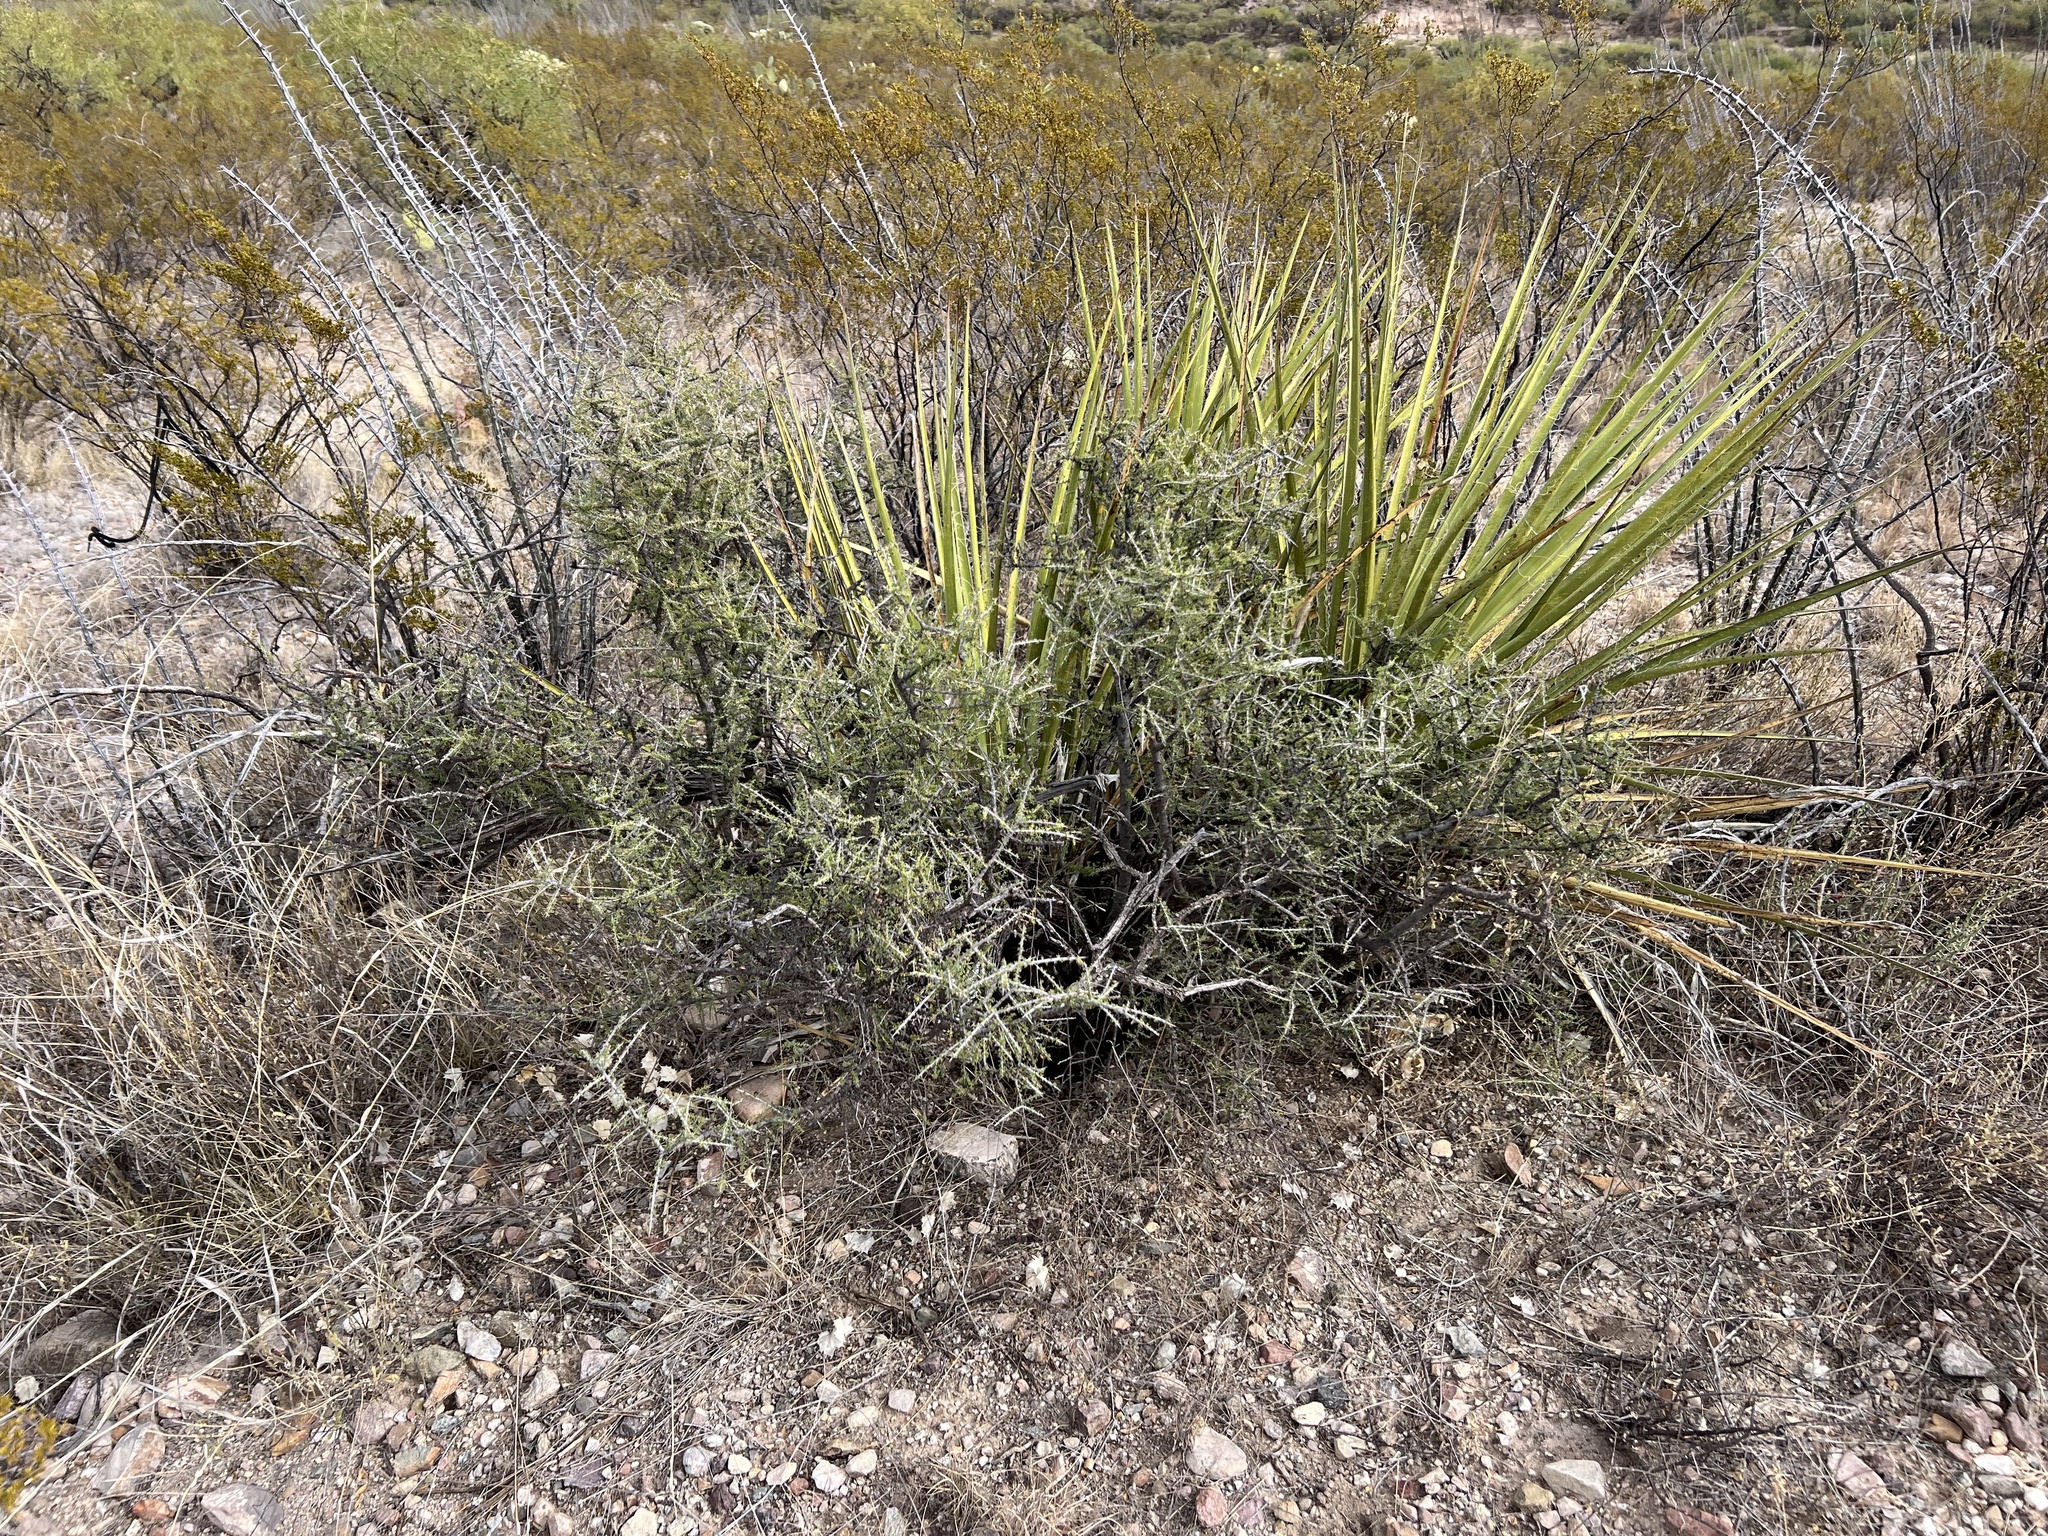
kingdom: Plantae
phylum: Tracheophyta
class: Magnoliopsida
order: Rosales
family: Rhamnaceae
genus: Condalia
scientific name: Condalia warnockii
